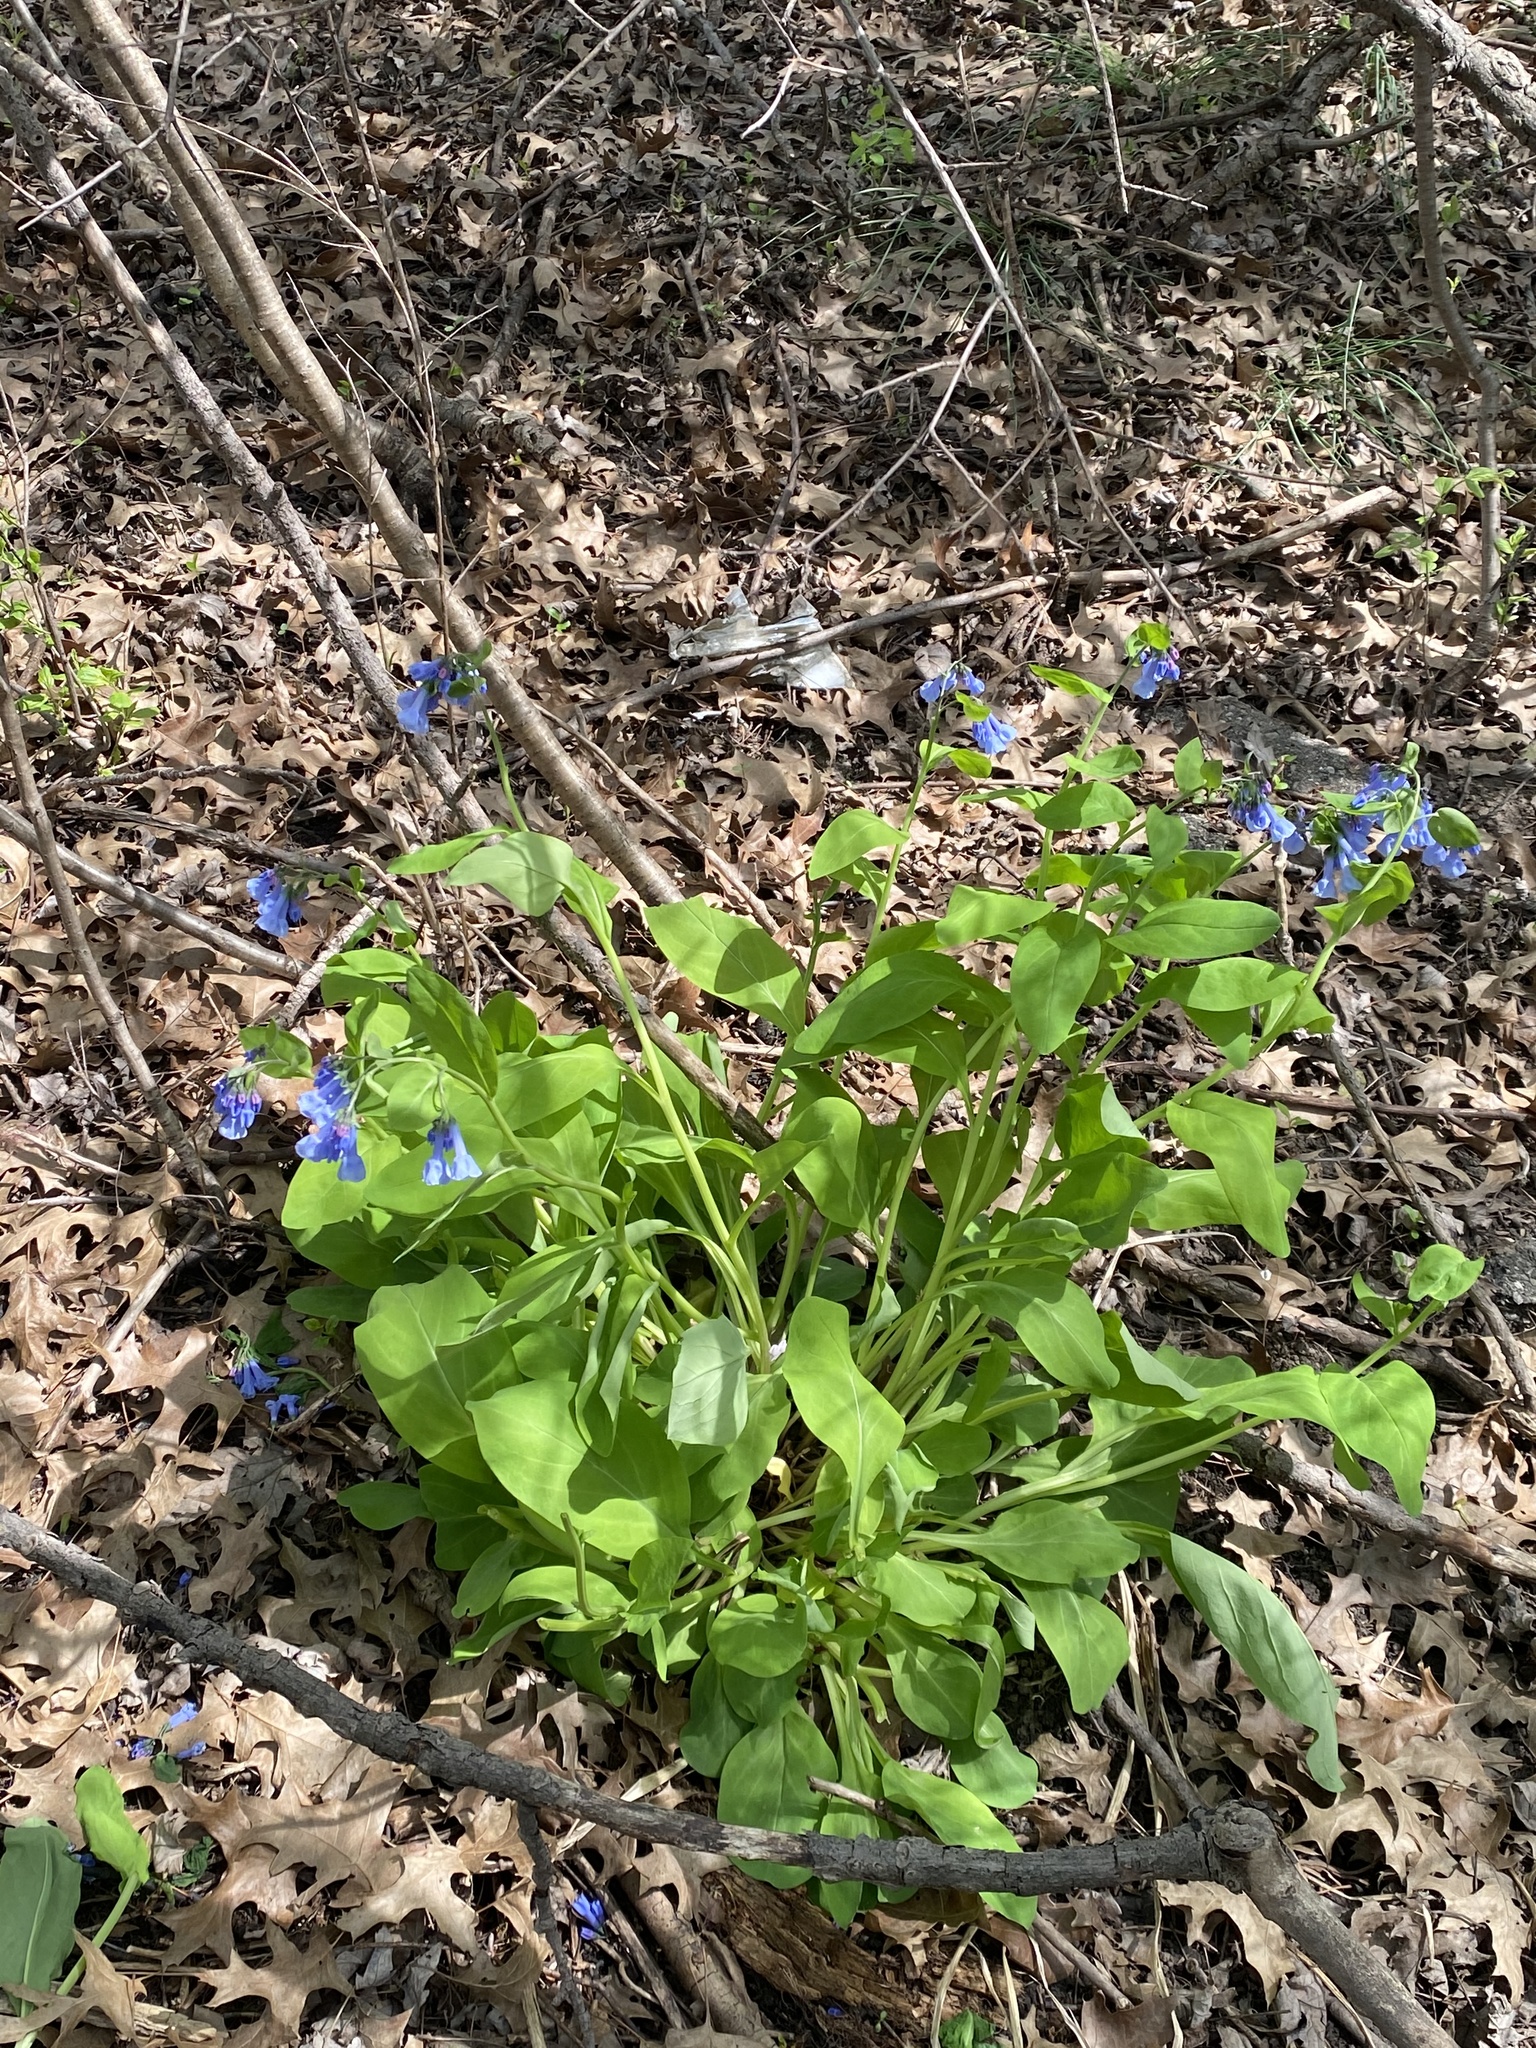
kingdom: Plantae
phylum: Tracheophyta
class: Magnoliopsida
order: Boraginales
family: Boraginaceae
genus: Mertensia
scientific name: Mertensia virginica
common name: Virginia bluebells
